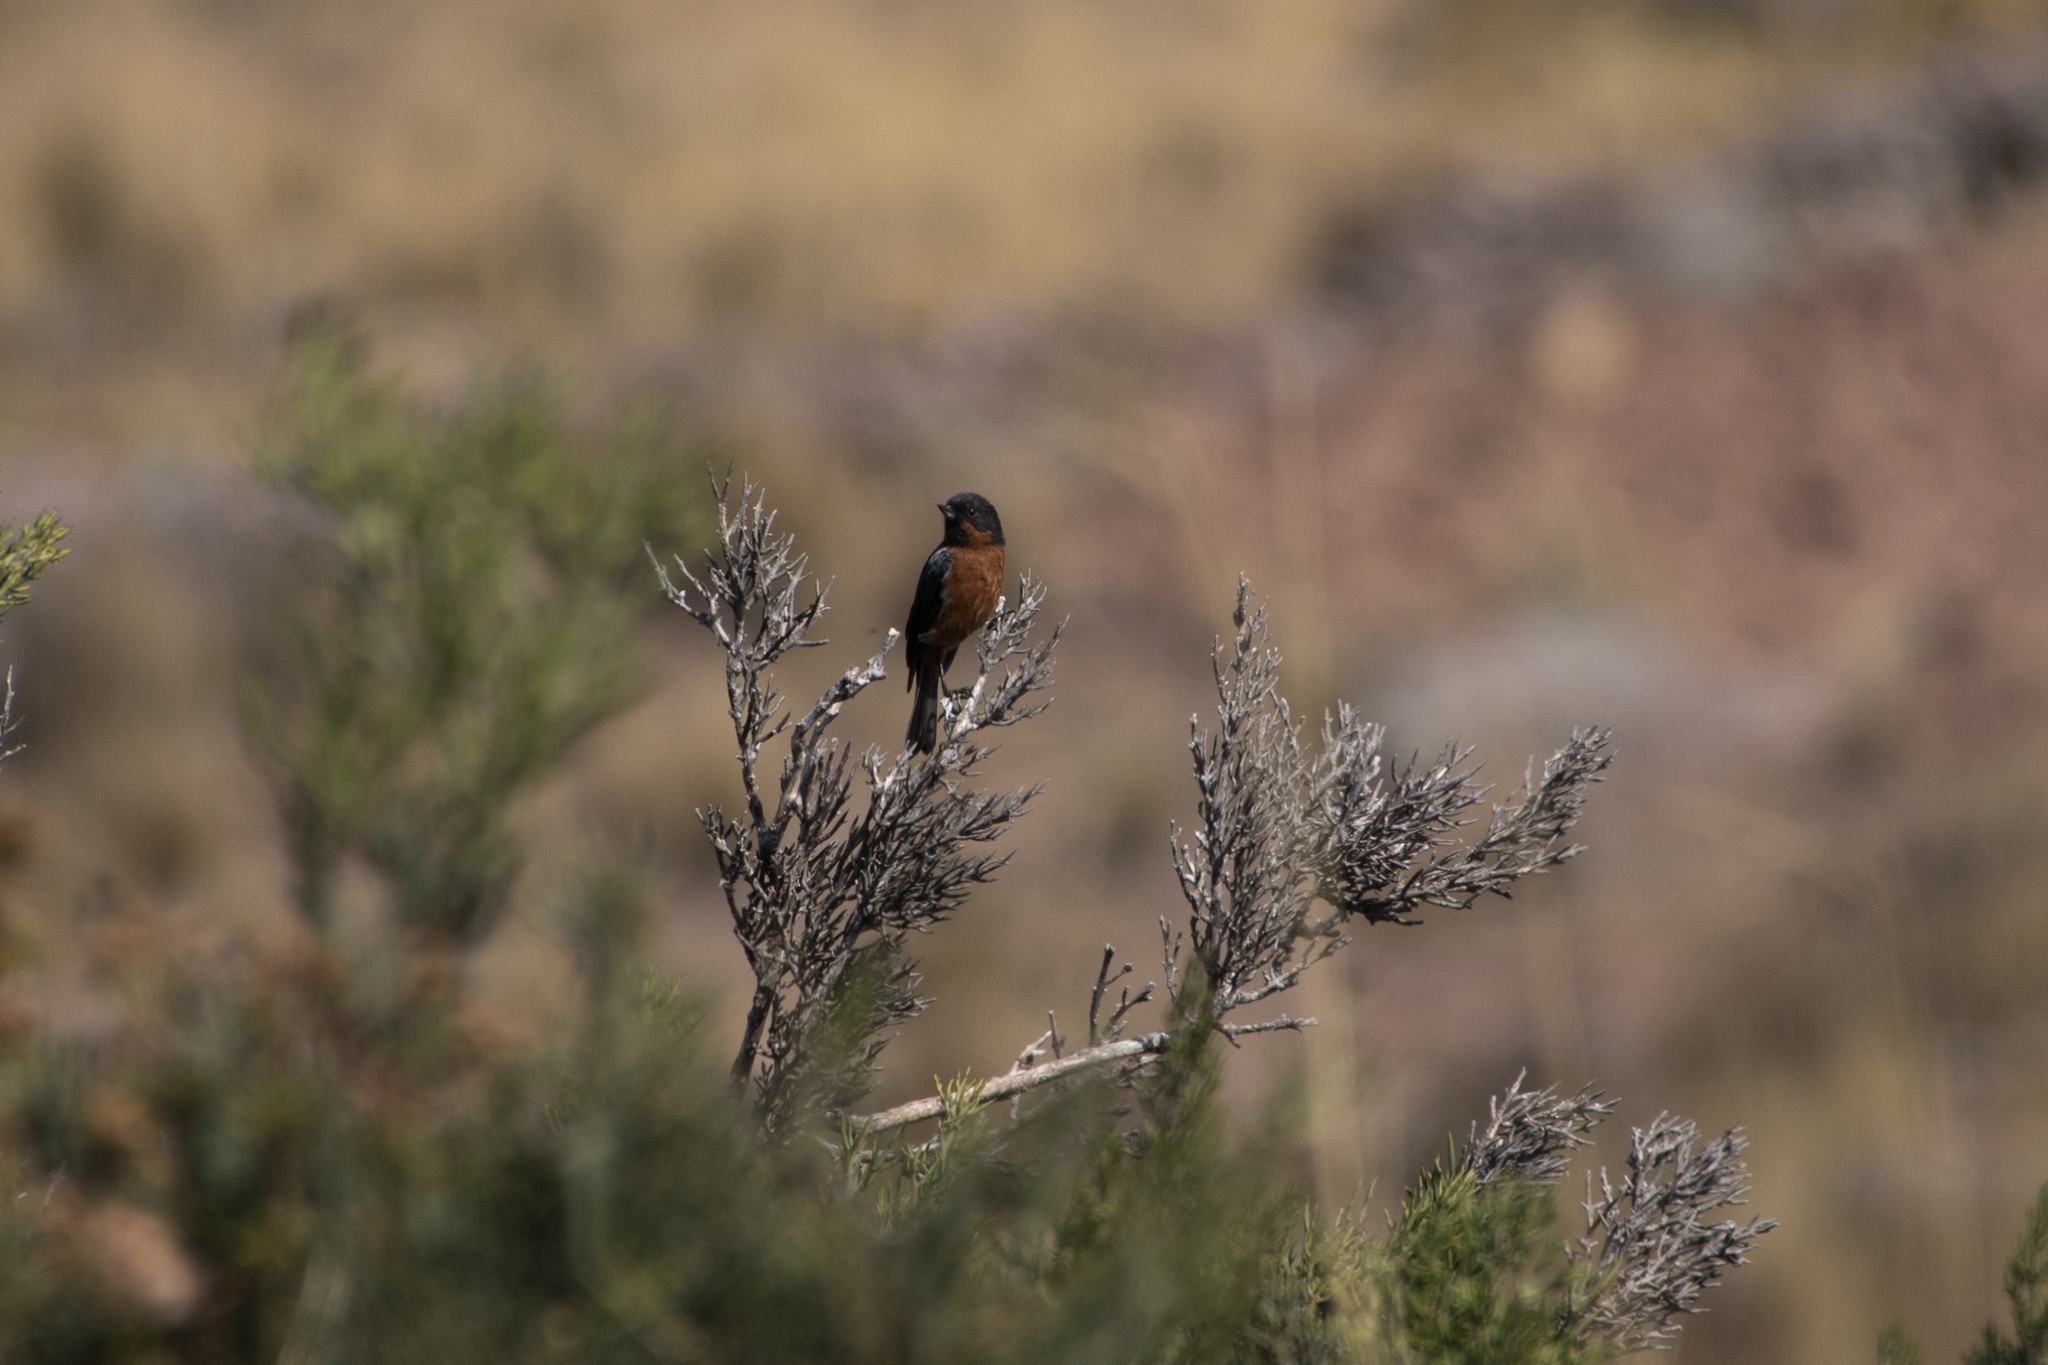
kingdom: Animalia
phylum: Chordata
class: Aves
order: Passeriformes
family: Thraupidae
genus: Diglossa
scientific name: Diglossa brunneiventris
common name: Black-throated flowerpiercer
